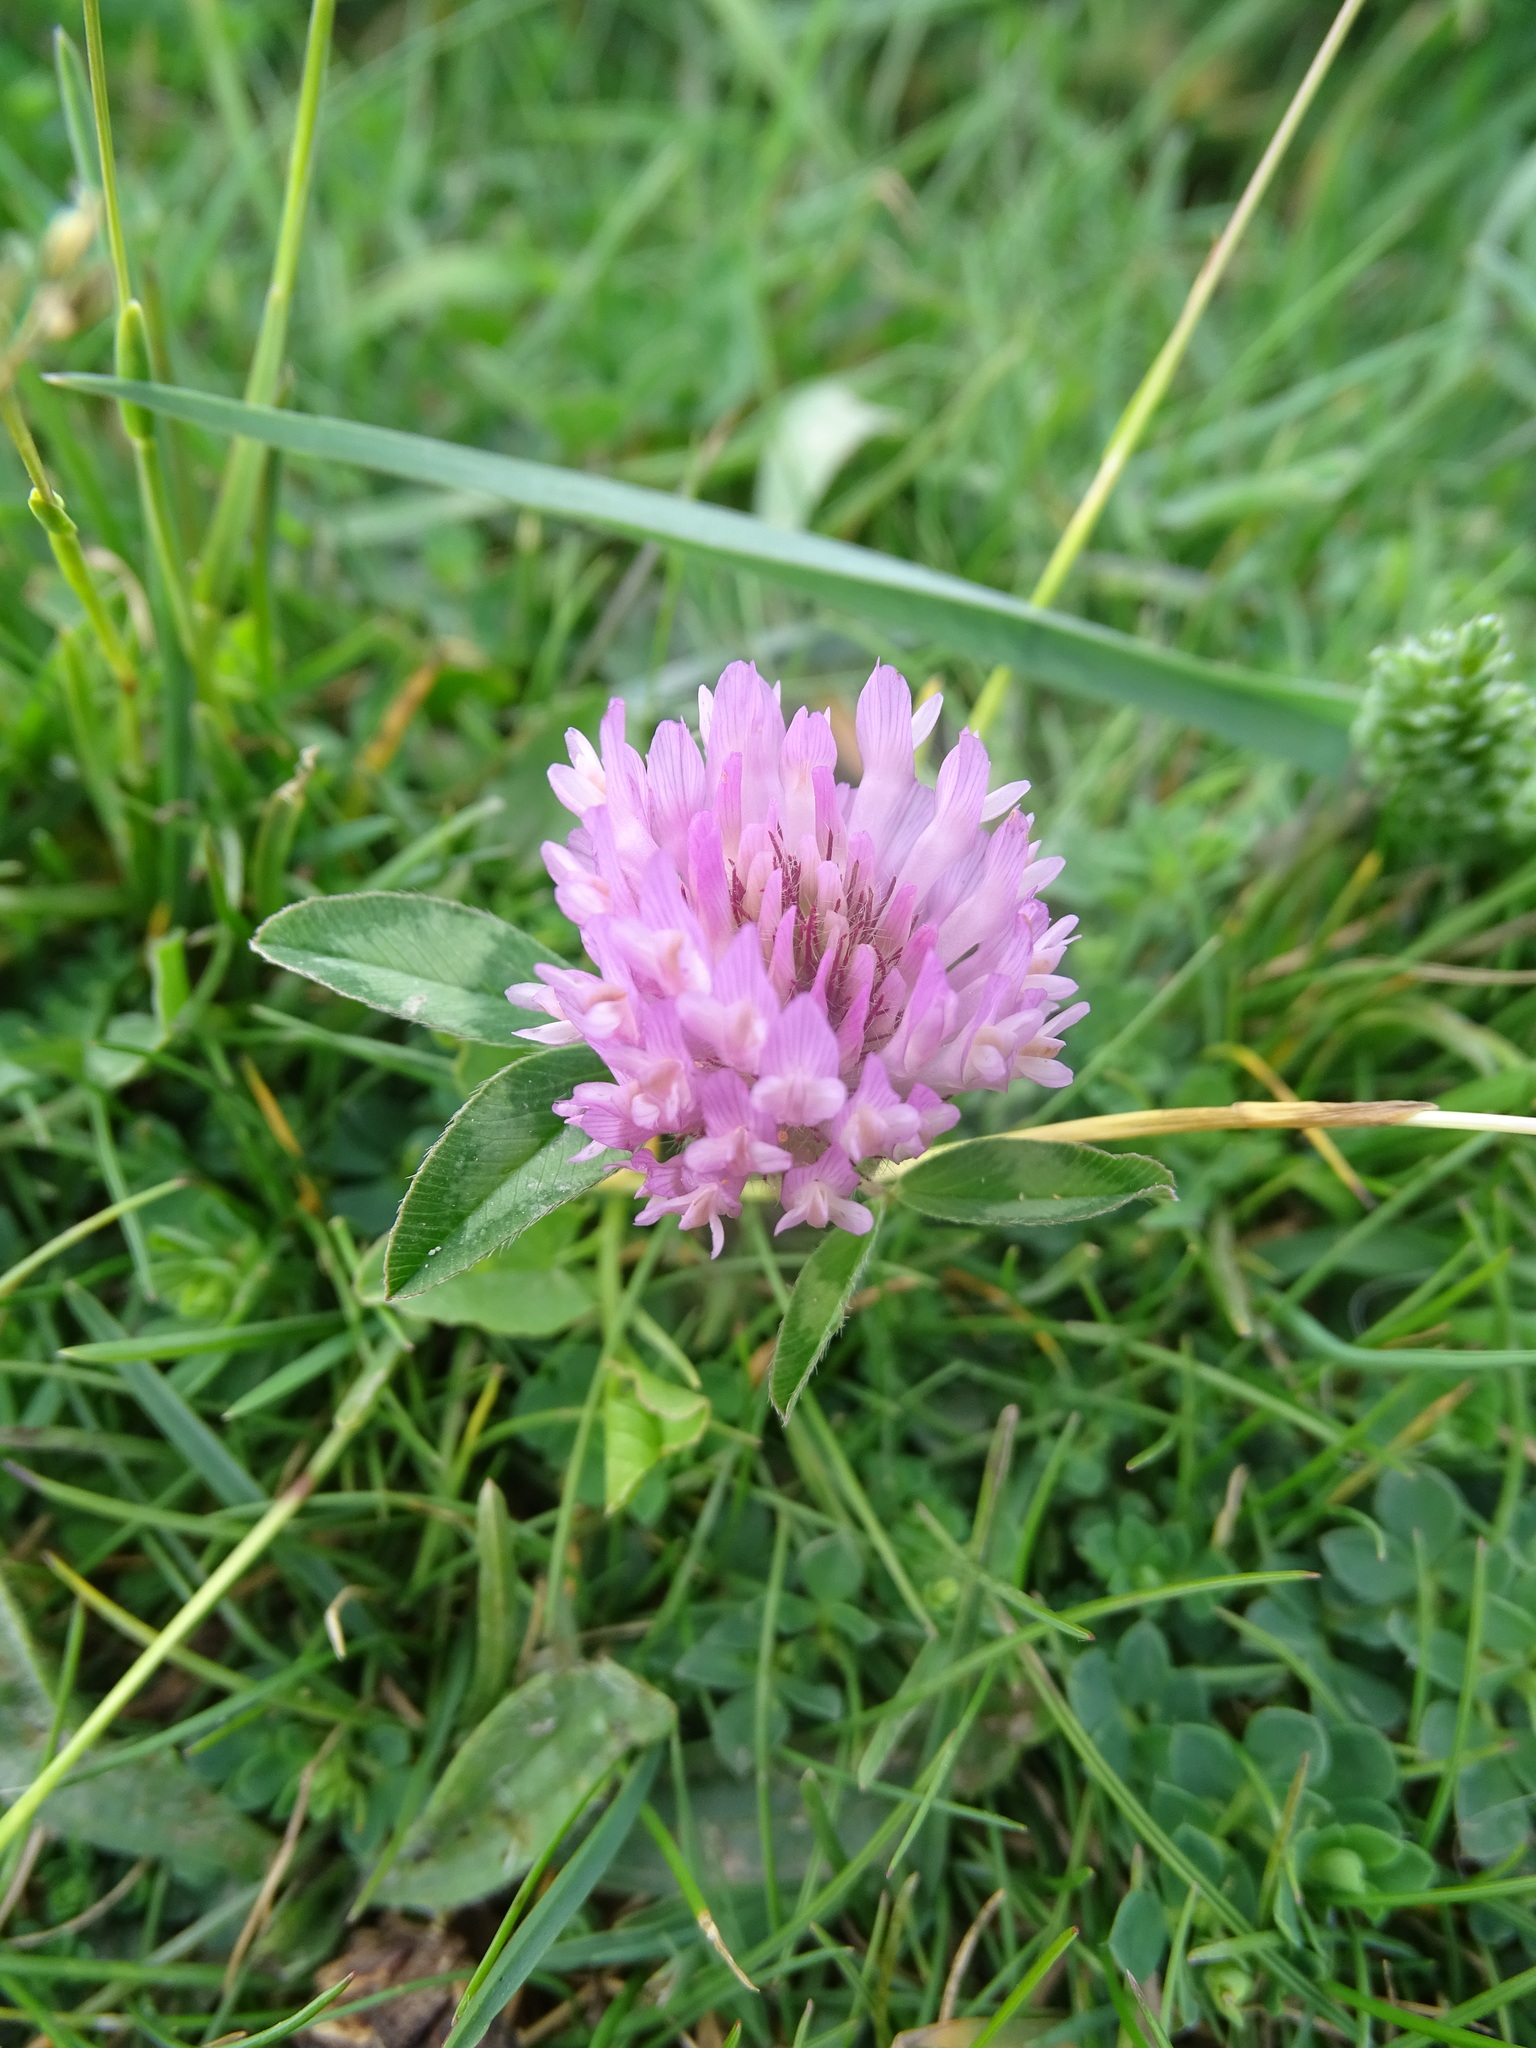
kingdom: Plantae
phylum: Tracheophyta
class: Magnoliopsida
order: Fabales
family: Fabaceae
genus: Trifolium
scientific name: Trifolium pratense
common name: Red clover
